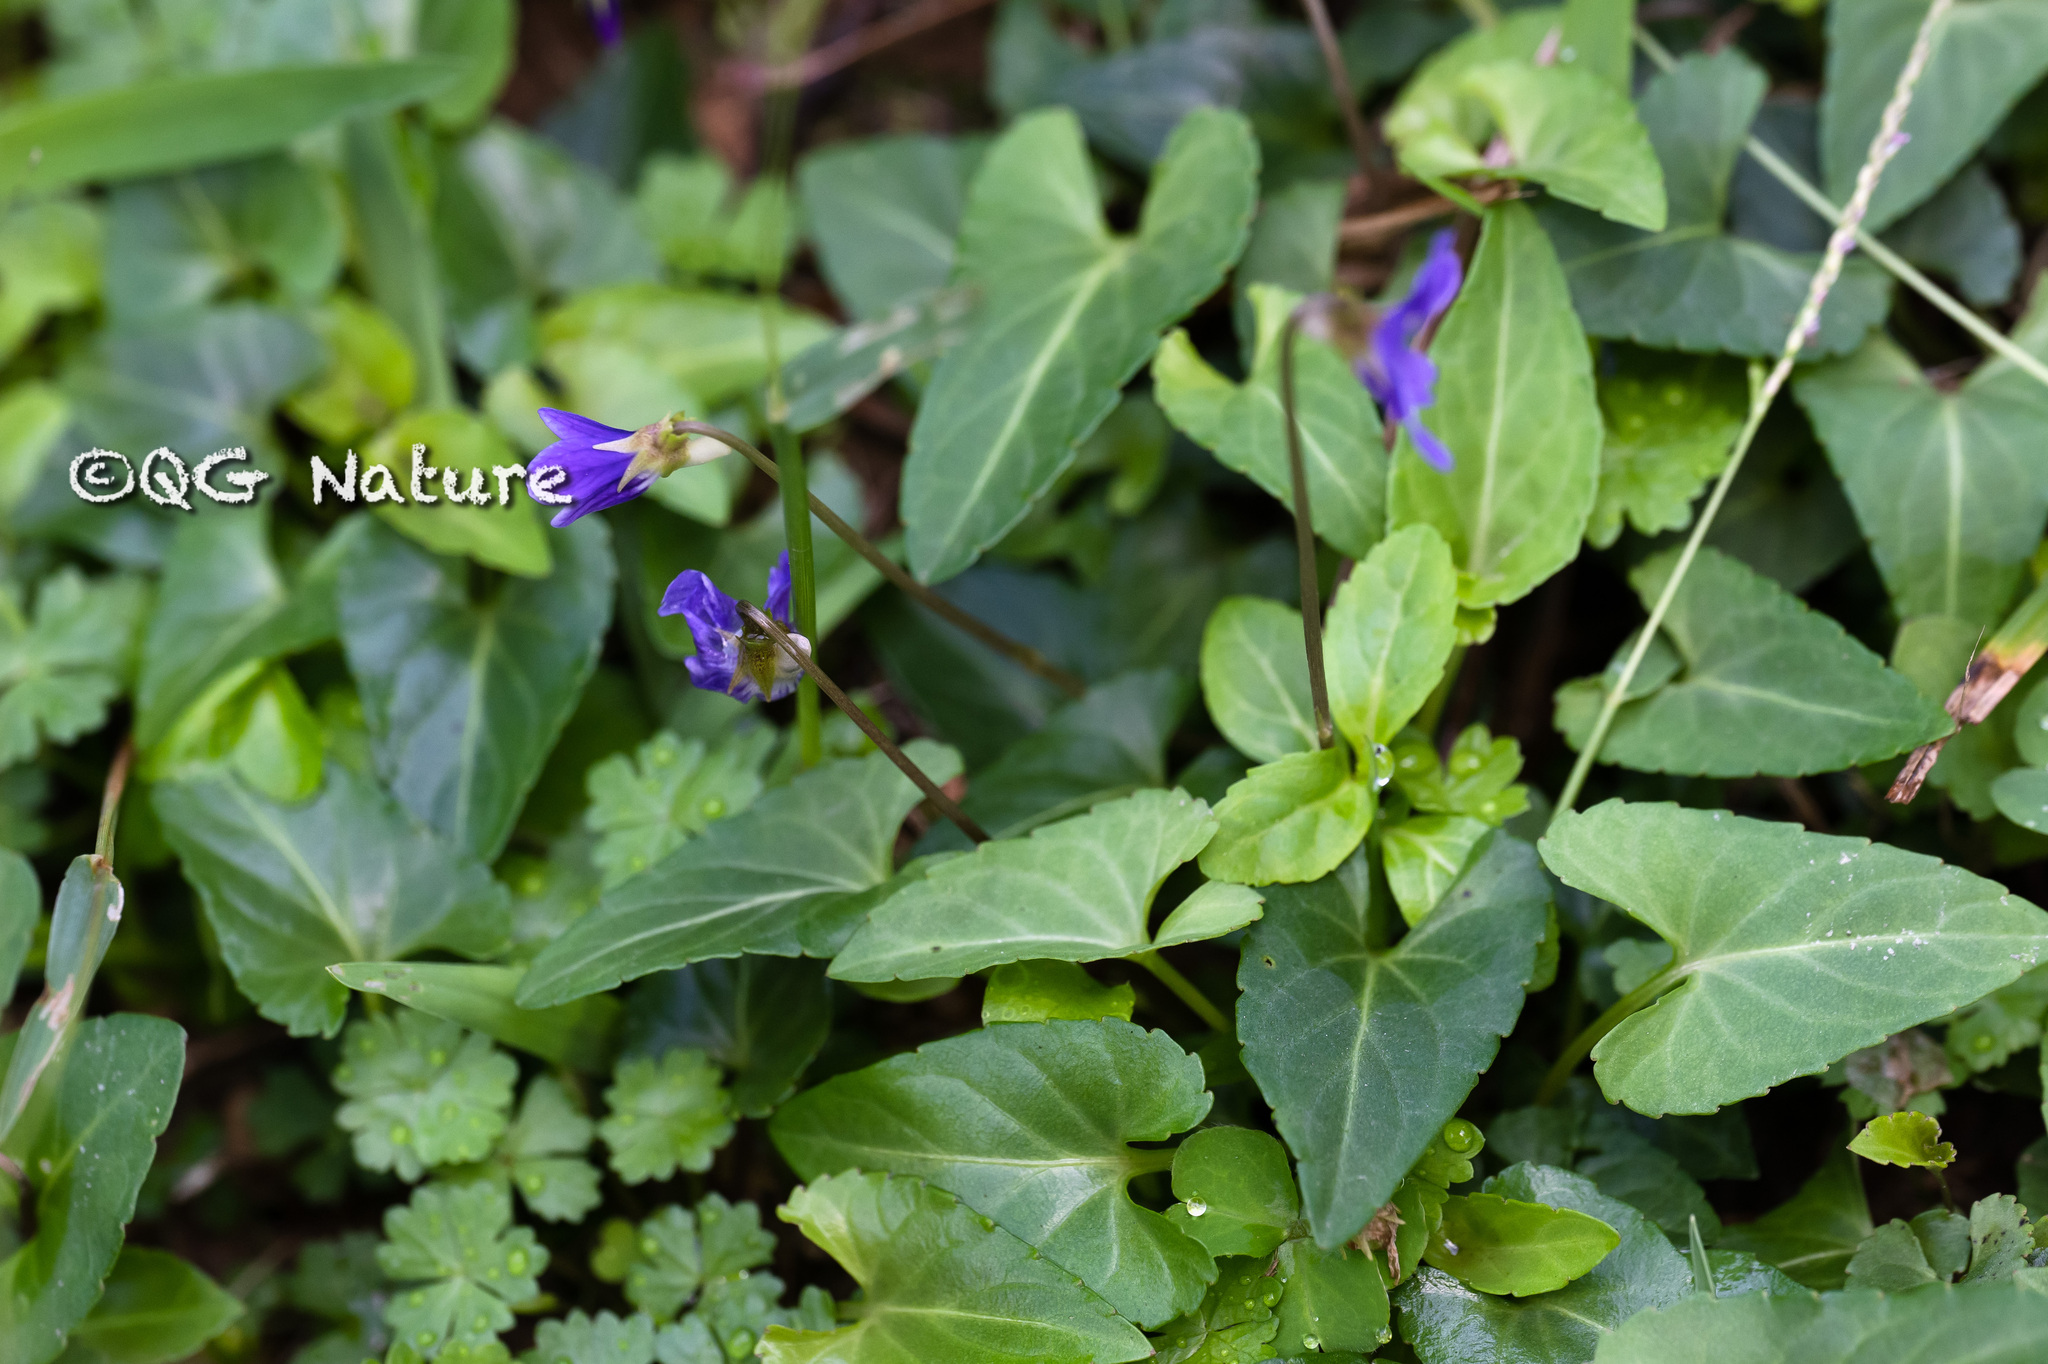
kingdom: Plantae
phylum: Tracheophyta
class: Magnoliopsida
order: Malpighiales
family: Violaceae
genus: Viola
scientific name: Viola inconspicua
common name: Long sepal violet
